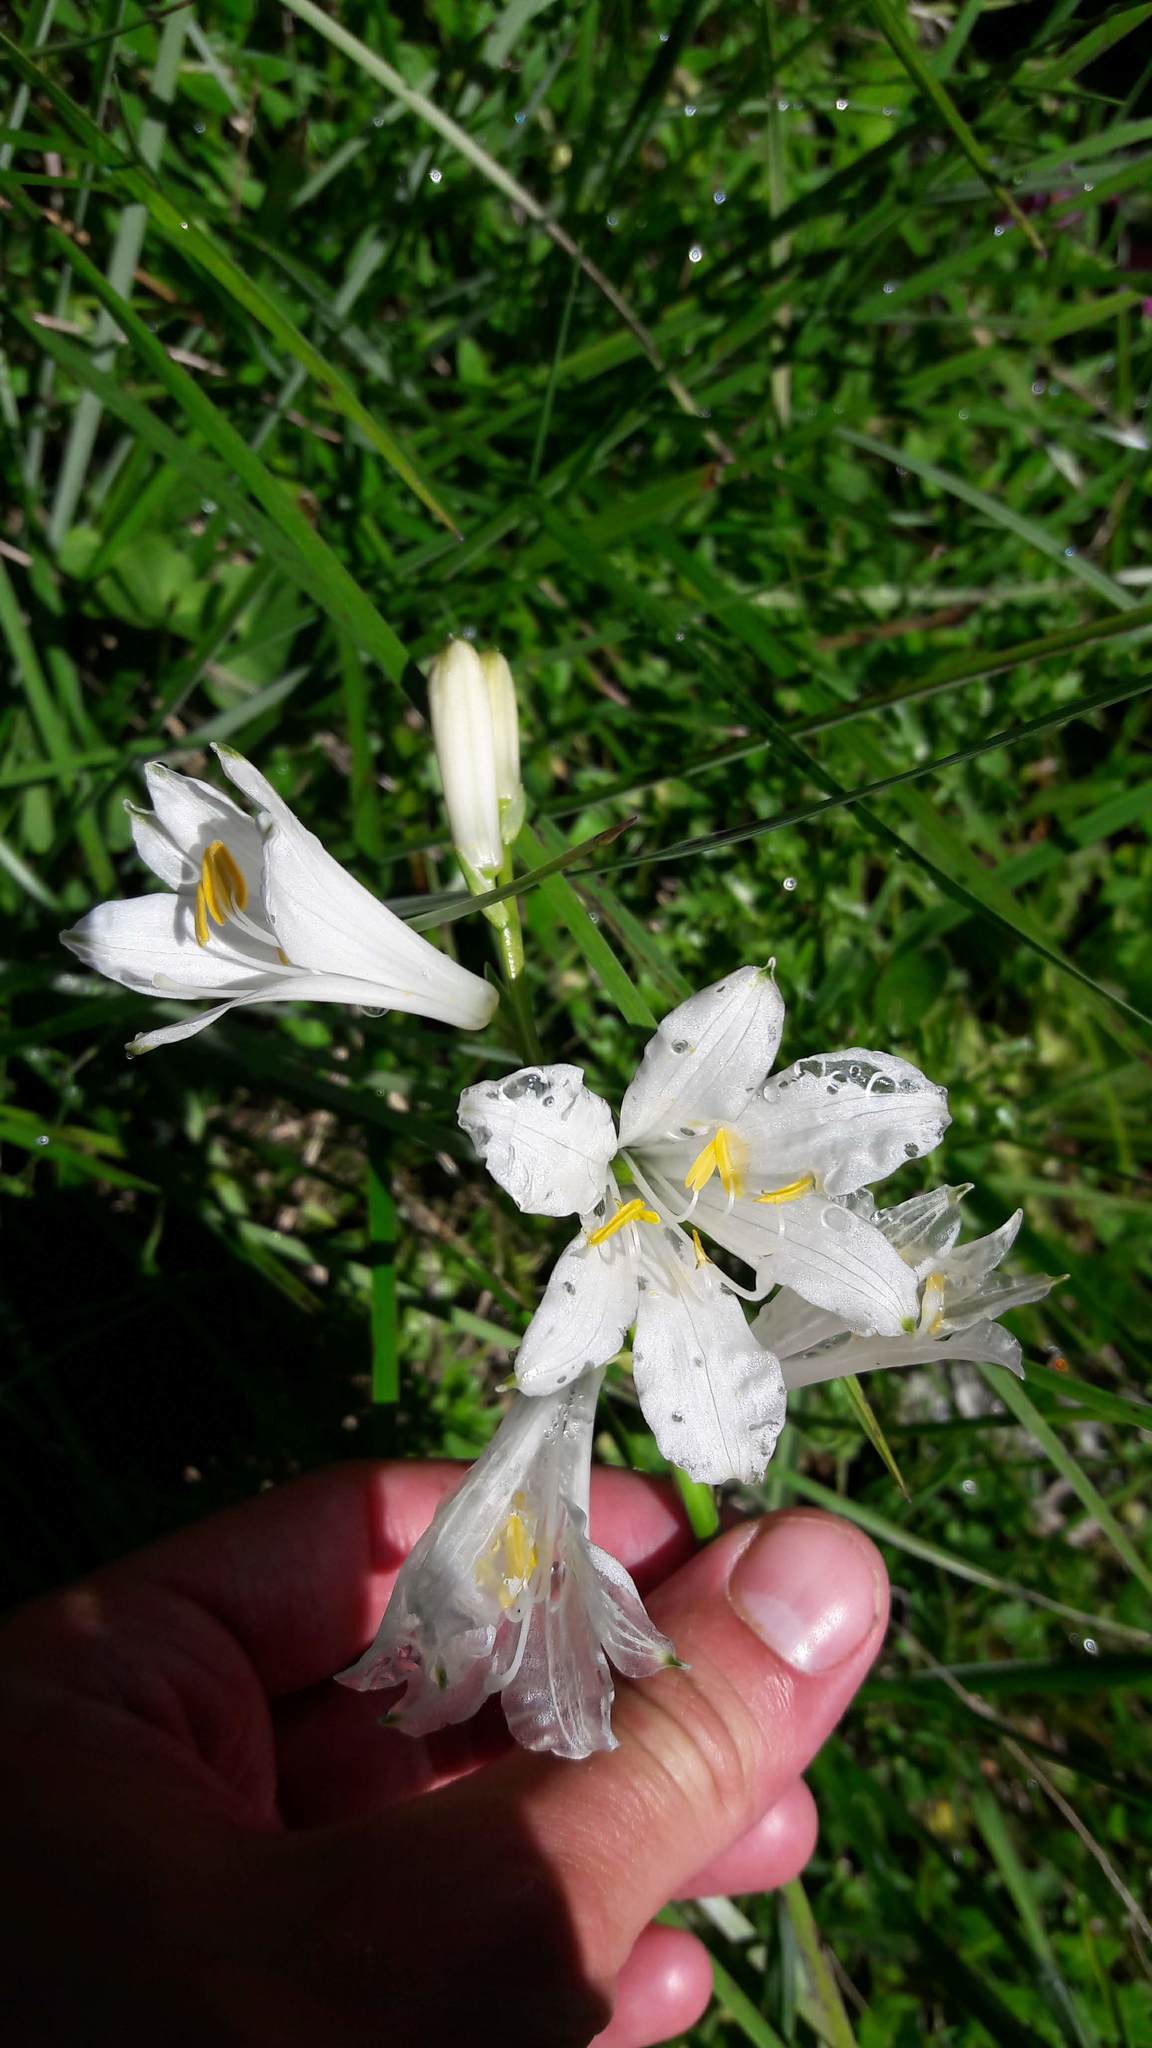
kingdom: Plantae
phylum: Tracheophyta
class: Liliopsida
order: Asparagales
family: Asparagaceae
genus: Paradisea
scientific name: Paradisea liliastrum
